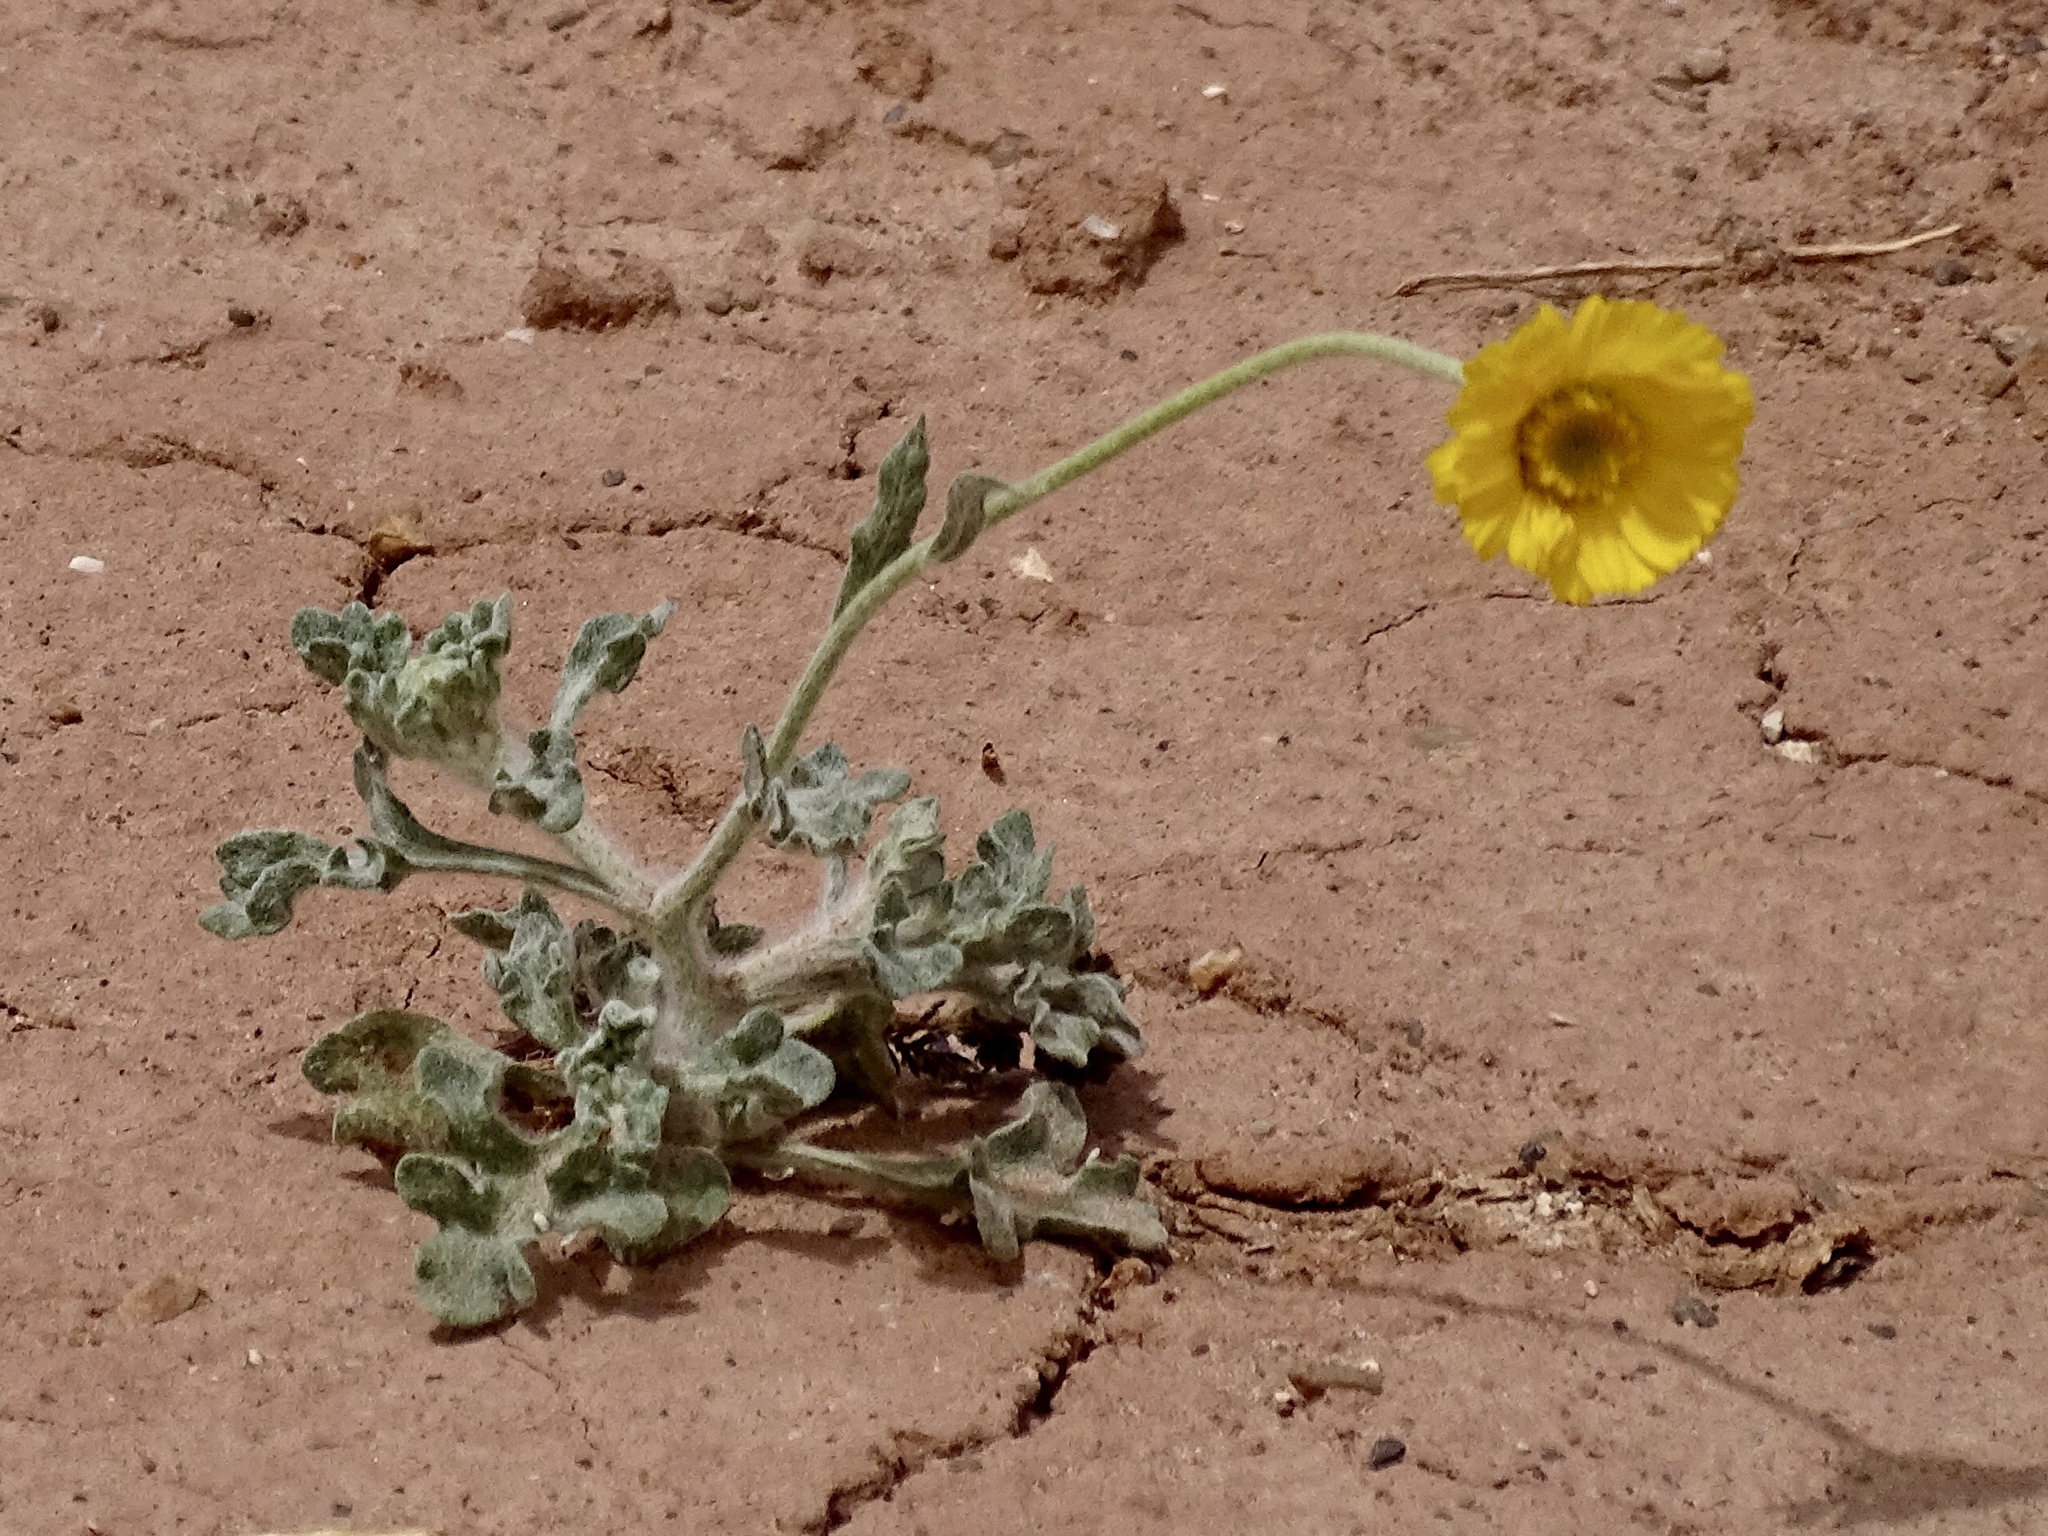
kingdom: Plantae
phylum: Tracheophyta
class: Magnoliopsida
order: Asterales
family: Asteraceae
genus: Baileya
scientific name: Baileya multiradiata
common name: Desert-marigold
